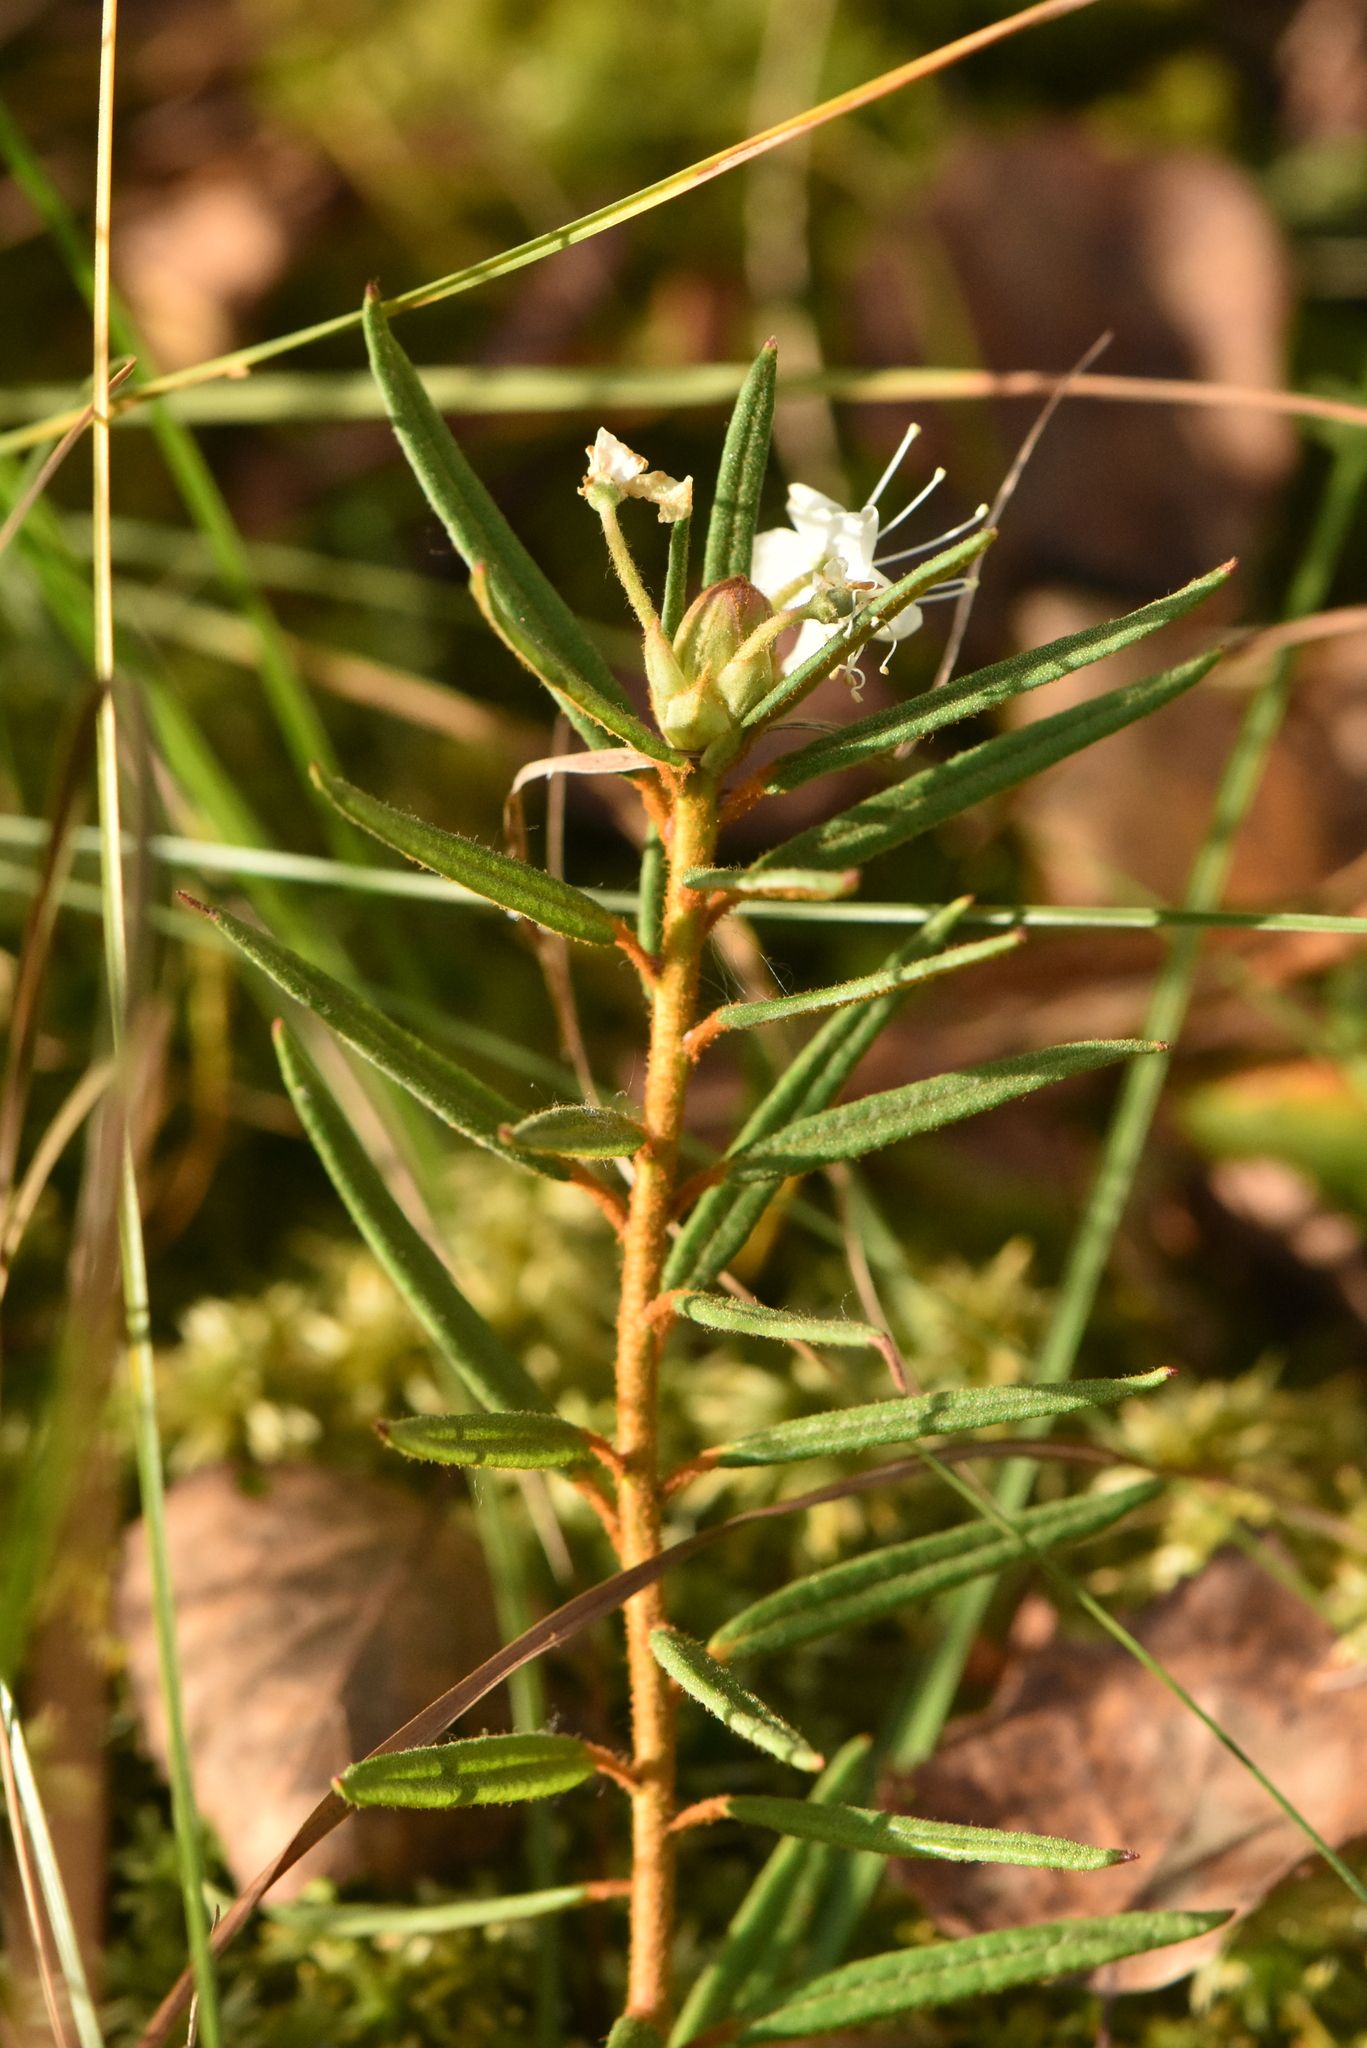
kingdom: Plantae
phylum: Tracheophyta
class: Magnoliopsida
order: Ericales
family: Ericaceae
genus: Rhododendron
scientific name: Rhododendron tomentosum
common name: Marsh labrador tea
